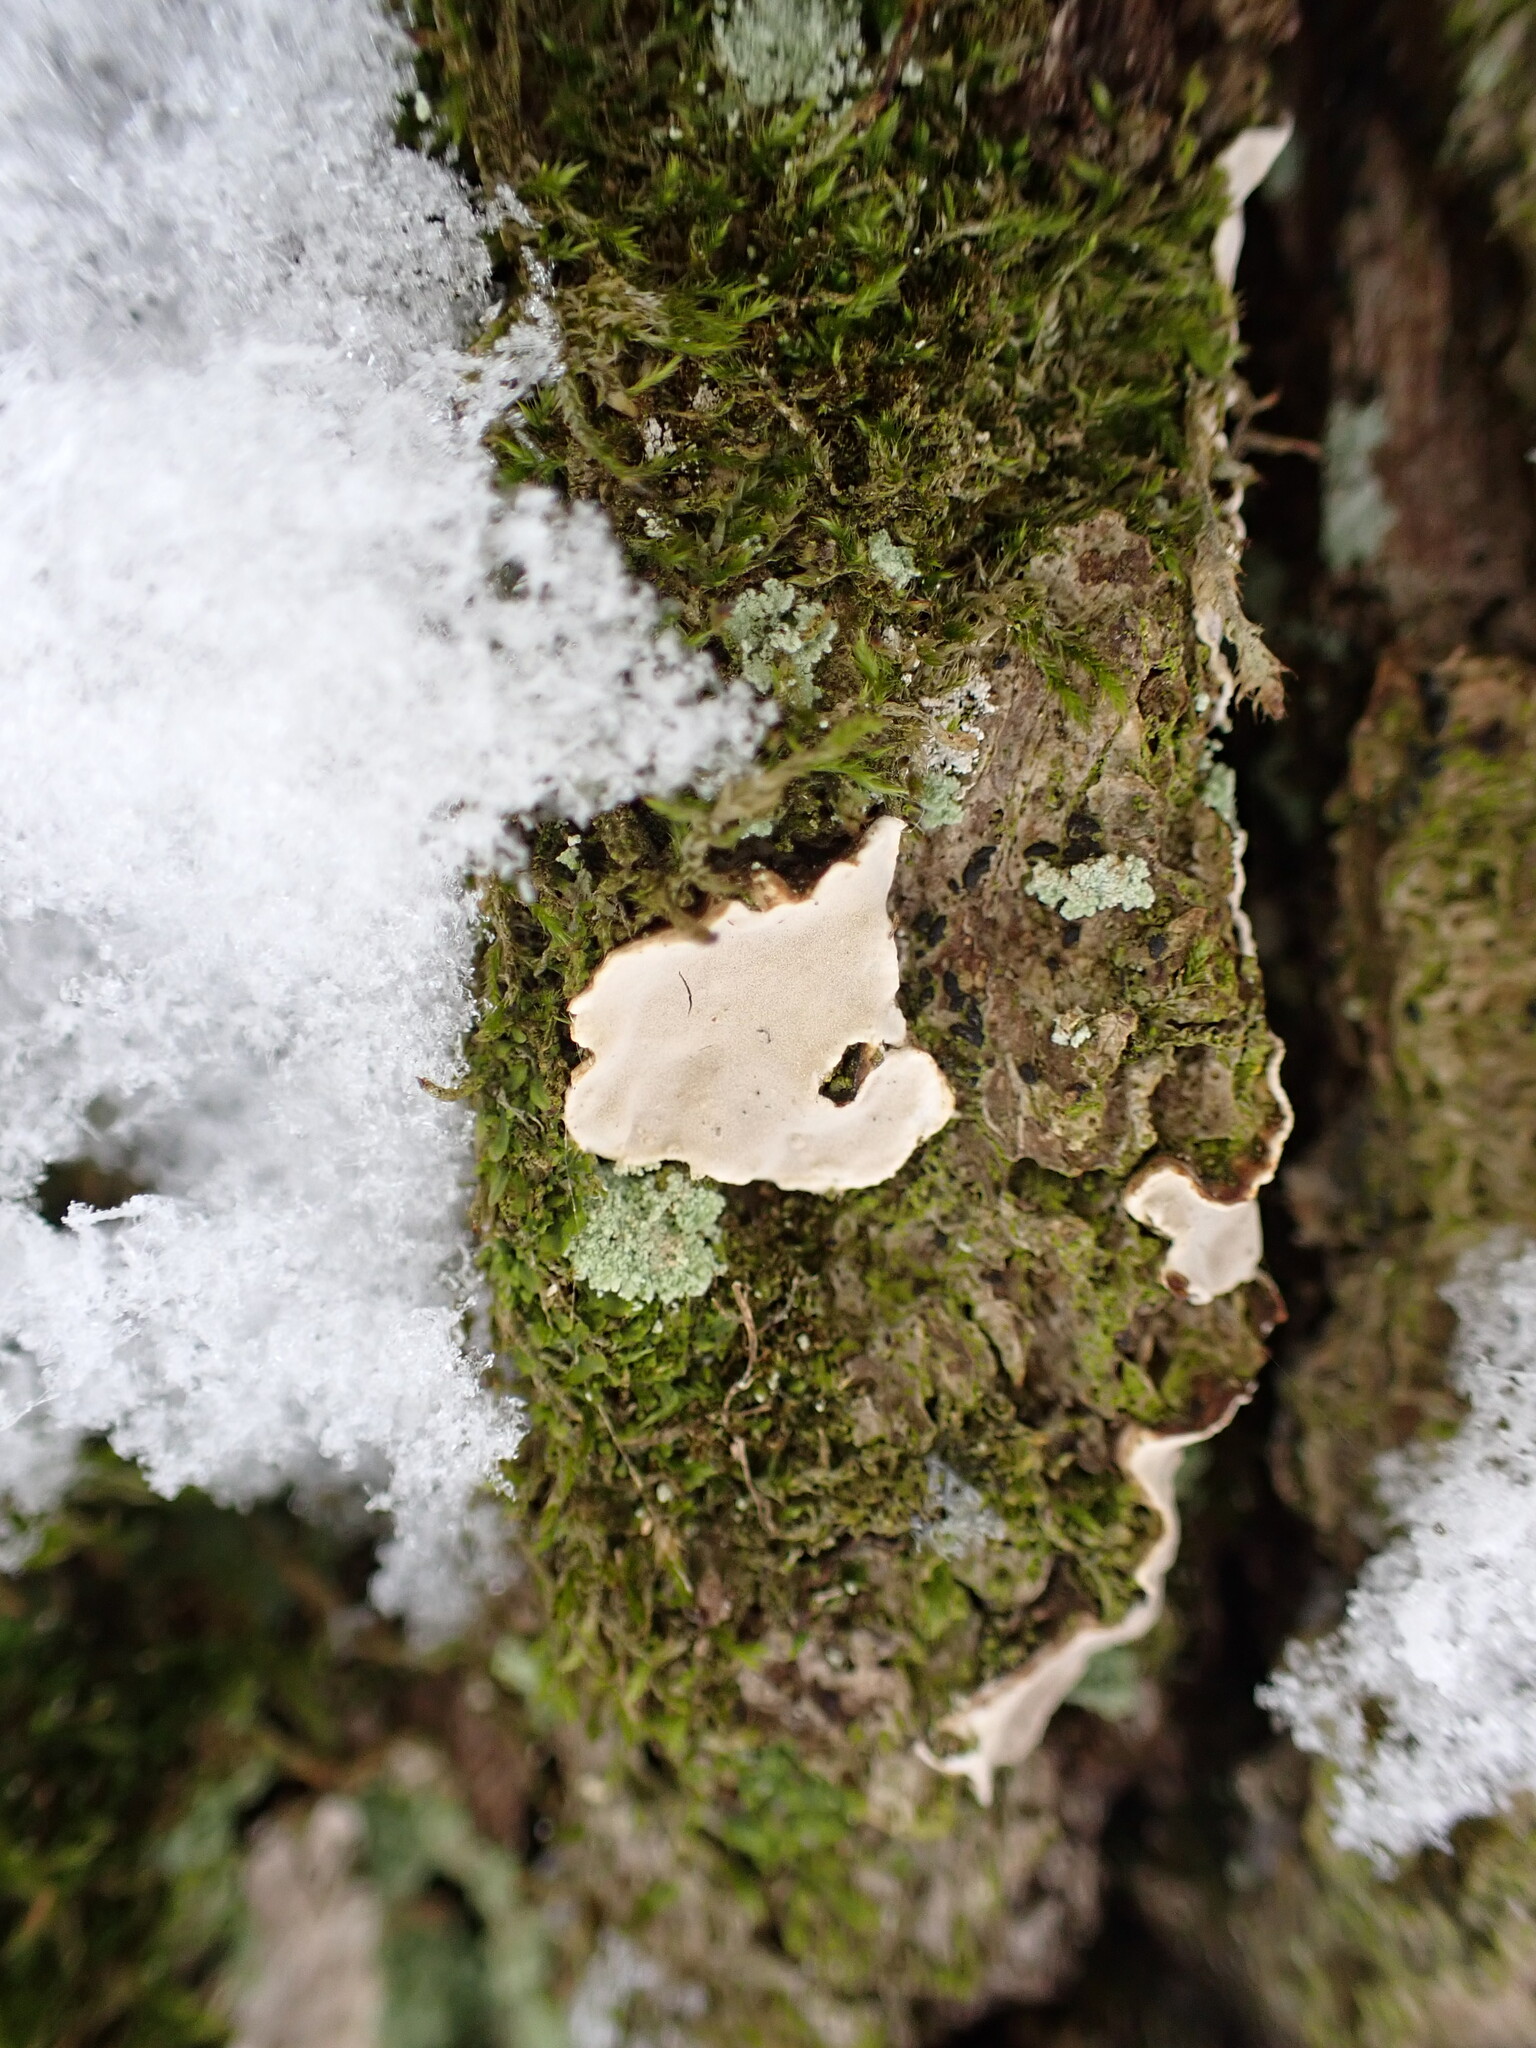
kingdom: Fungi
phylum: Basidiomycota
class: Agaricomycetes
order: Russulales
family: Stereaceae
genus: Aleurodiscus
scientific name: Aleurodiscus disciformis
